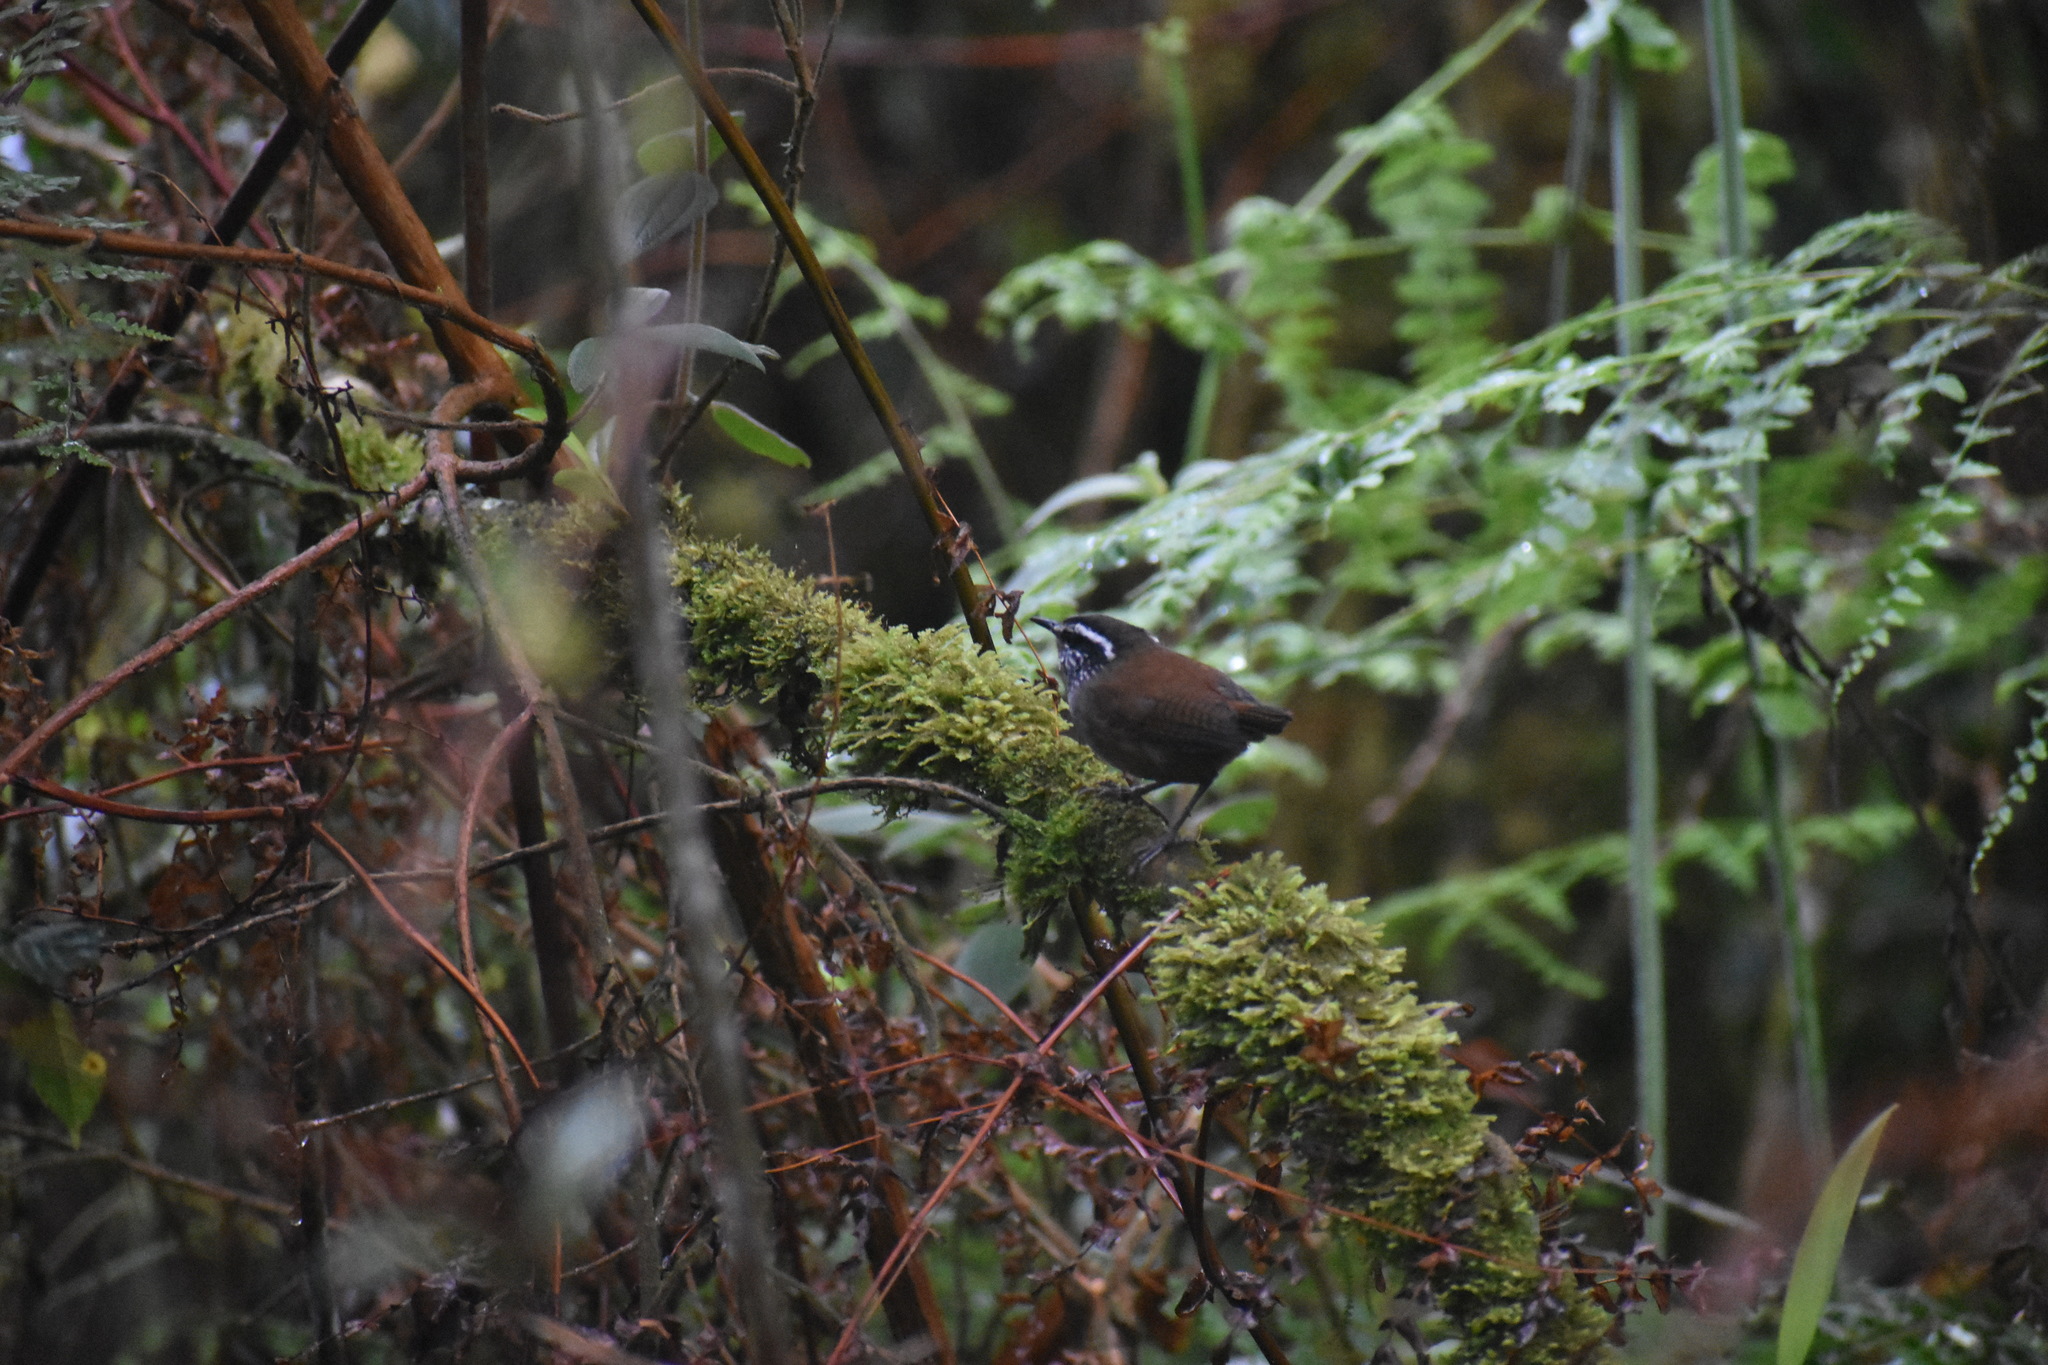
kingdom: Animalia
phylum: Chordata
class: Aves
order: Passeriformes
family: Troglodytidae
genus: Henicorhina
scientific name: Henicorhina leucophrys
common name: Gray-breasted wood-wren
